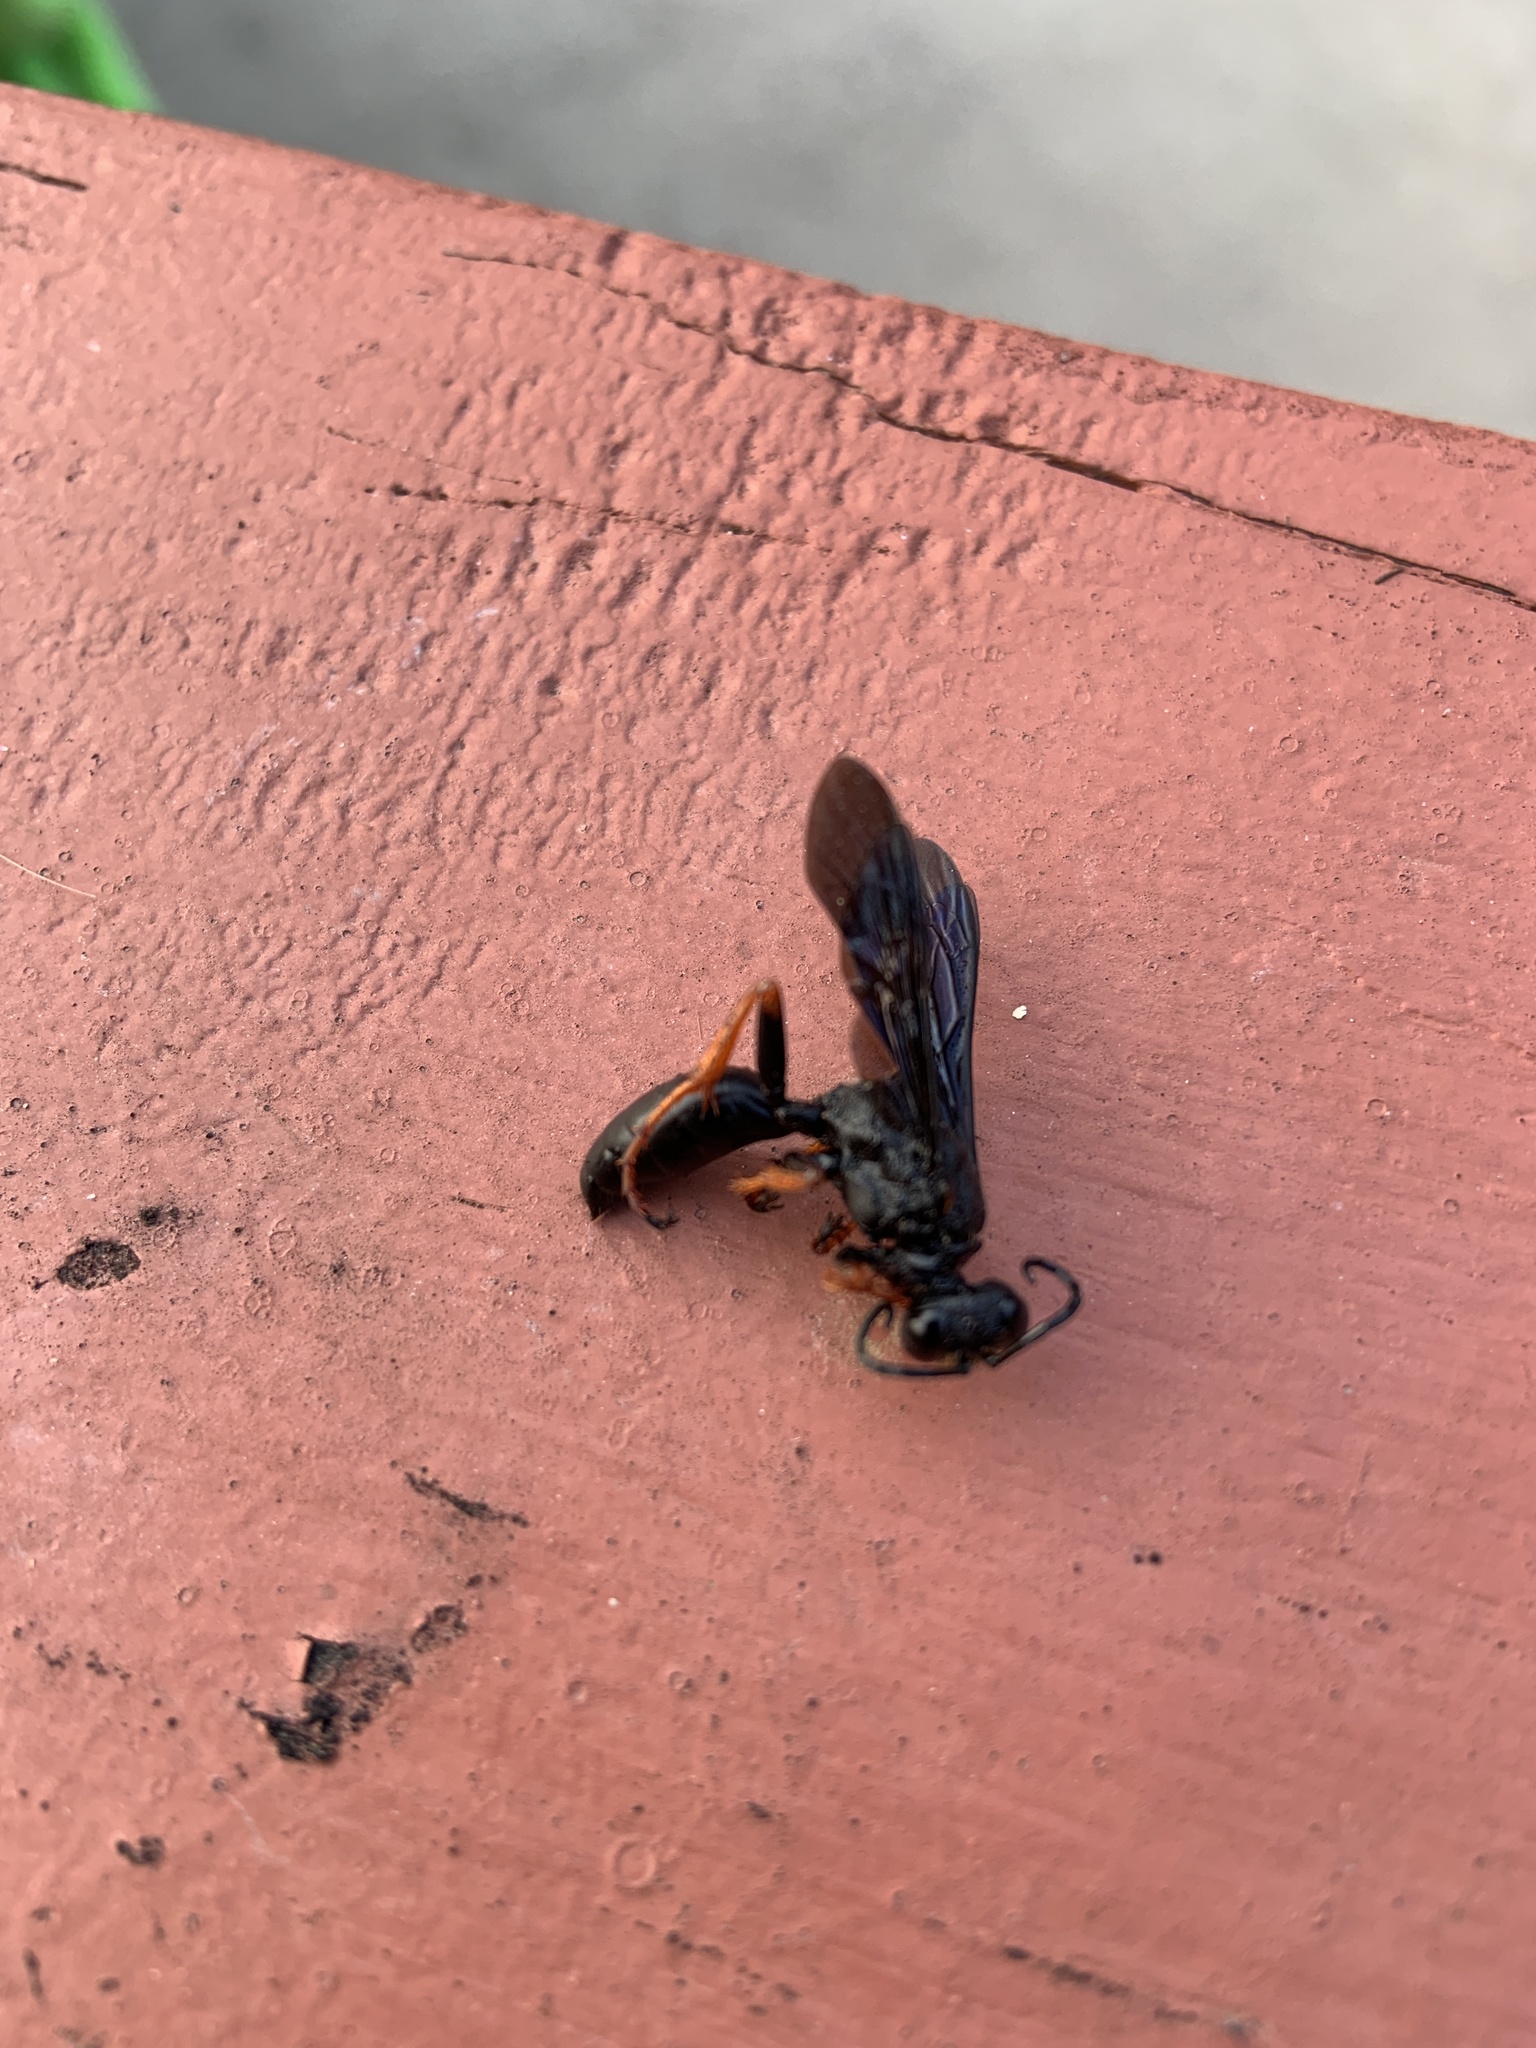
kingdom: Animalia
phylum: Arthropoda
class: Insecta
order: Hymenoptera
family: Sphecidae
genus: Sphex
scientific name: Sphex nudus
